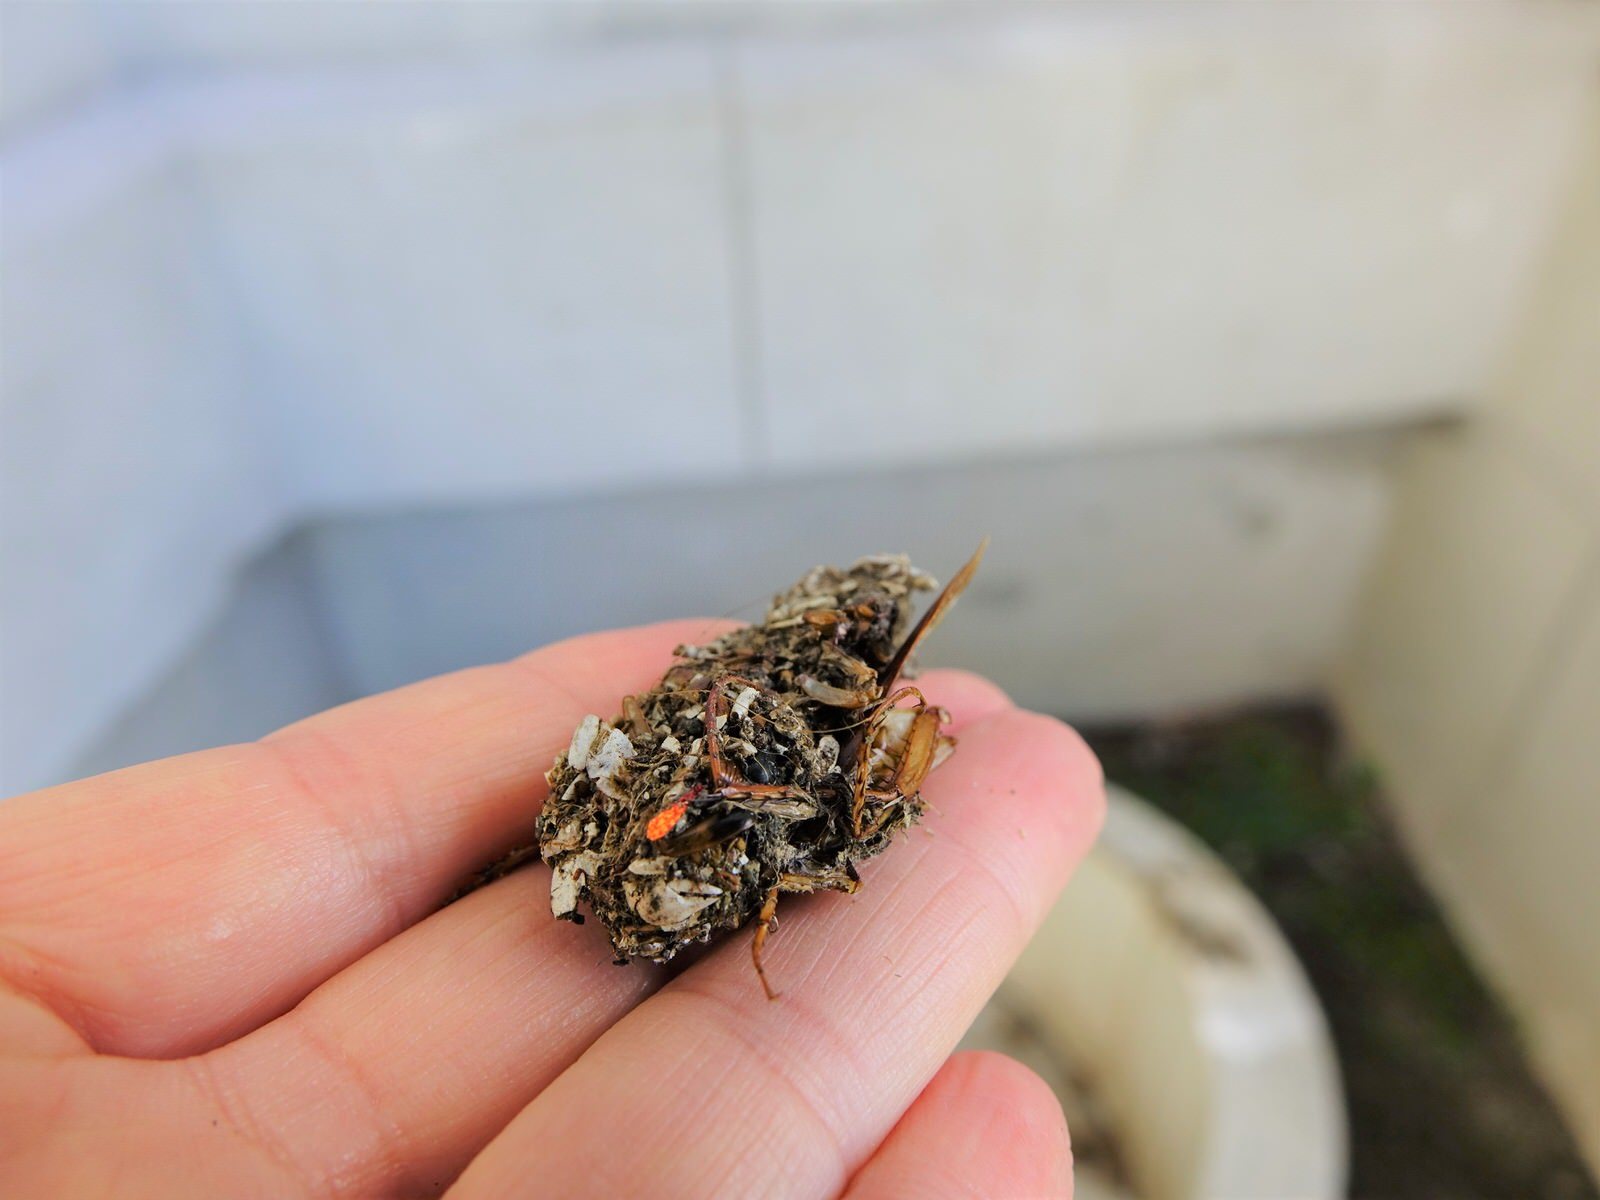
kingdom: Animalia
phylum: Arthropoda
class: Malacostraca
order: Decapoda
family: Varunidae
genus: Austrohelice
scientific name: Austrohelice crassa
